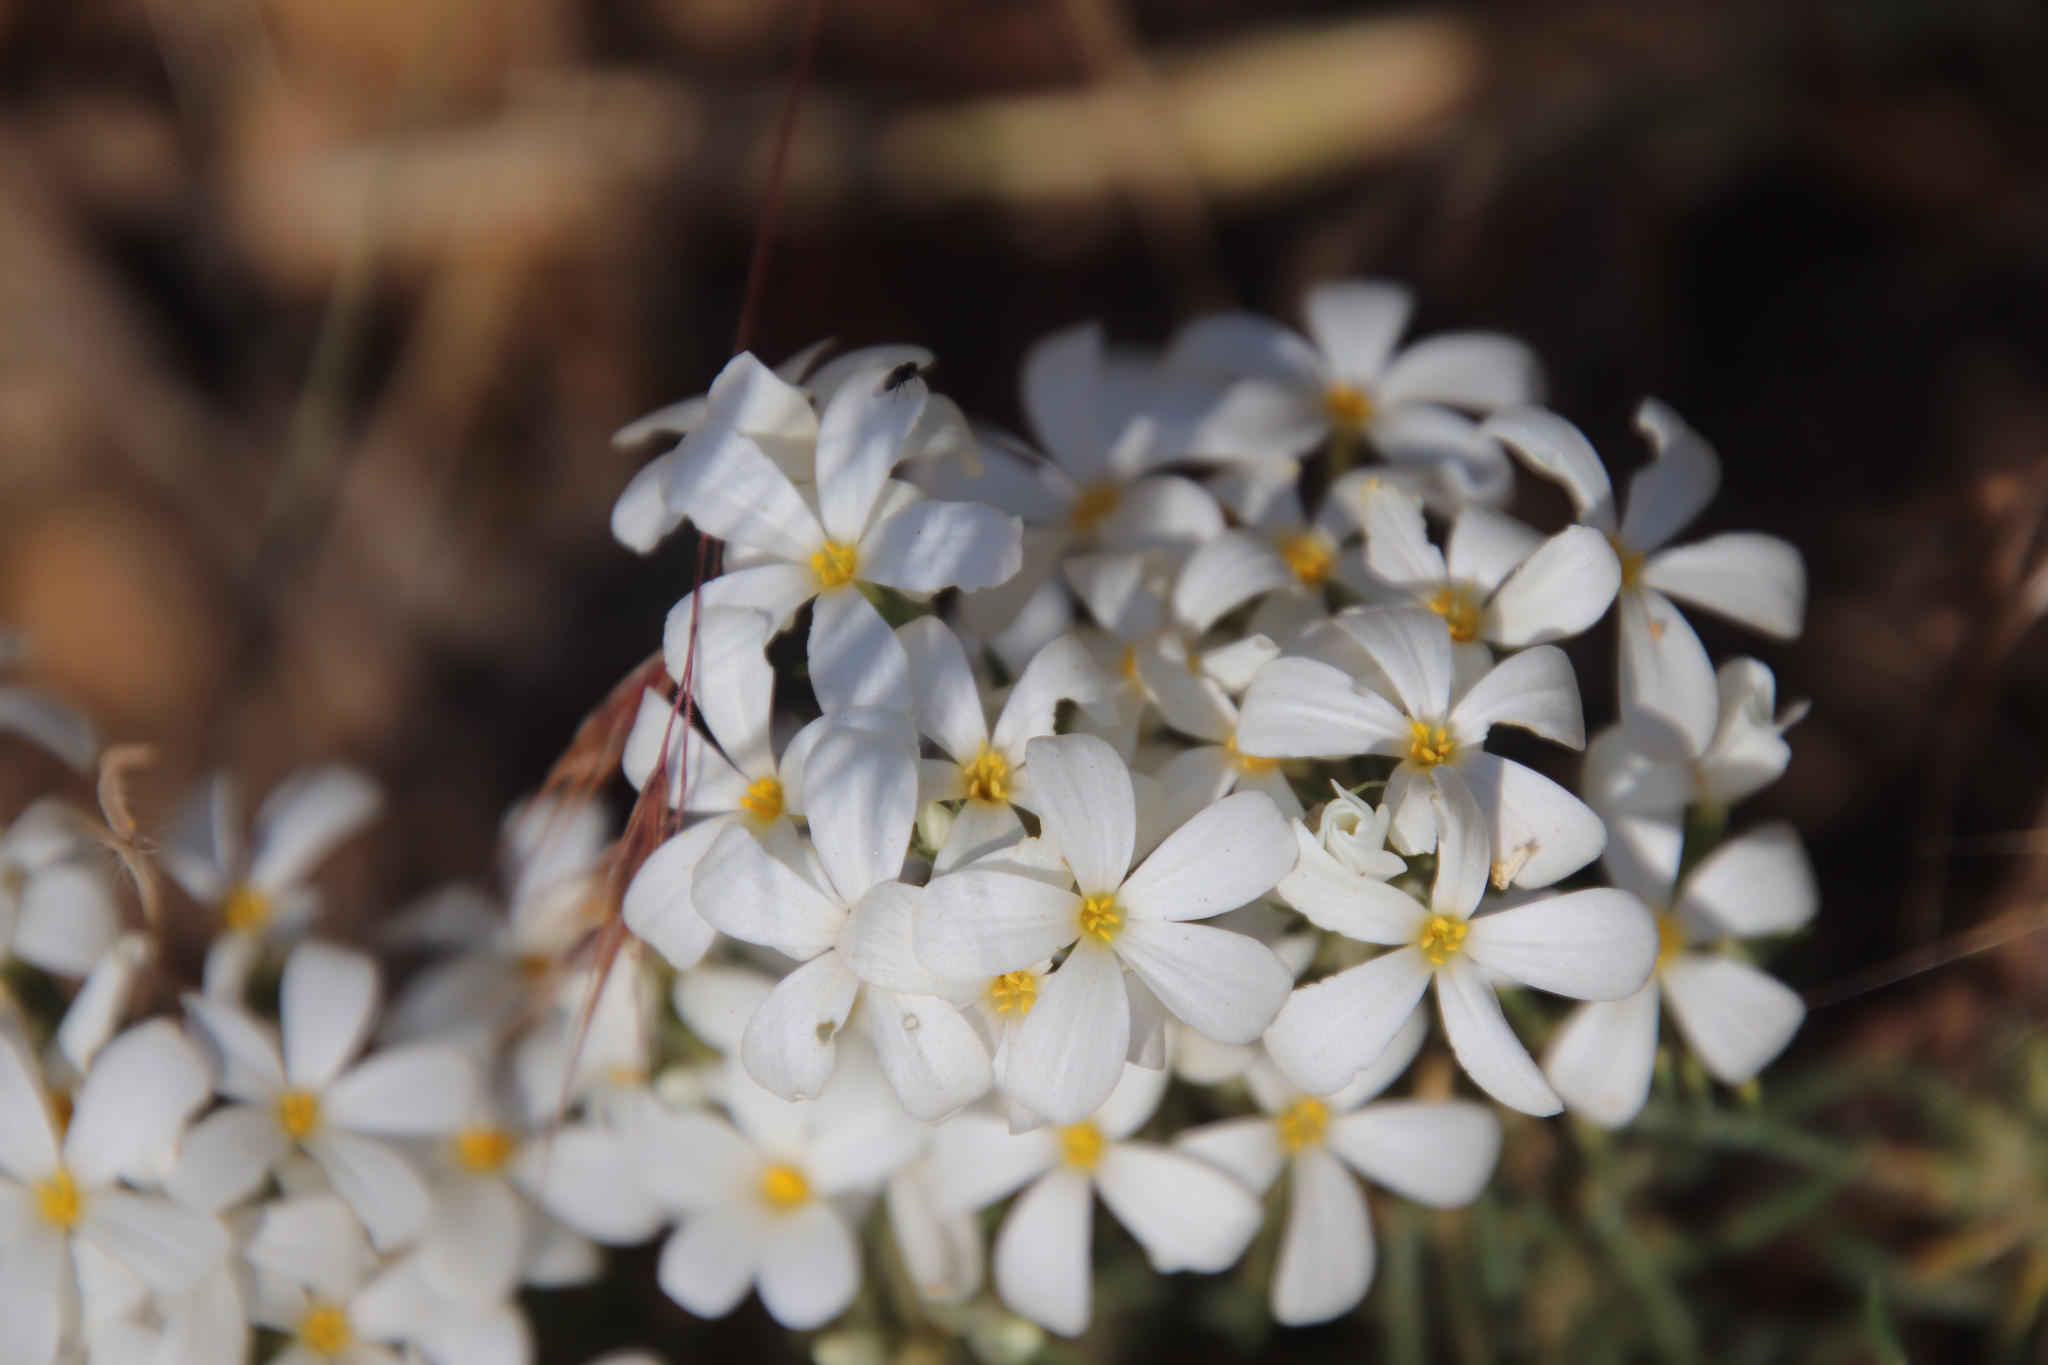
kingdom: Plantae
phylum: Tracheophyta
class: Magnoliopsida
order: Ericales
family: Polemoniaceae
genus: Leptosiphon
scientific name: Leptosiphon floribundum
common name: Many-flower linanthus
